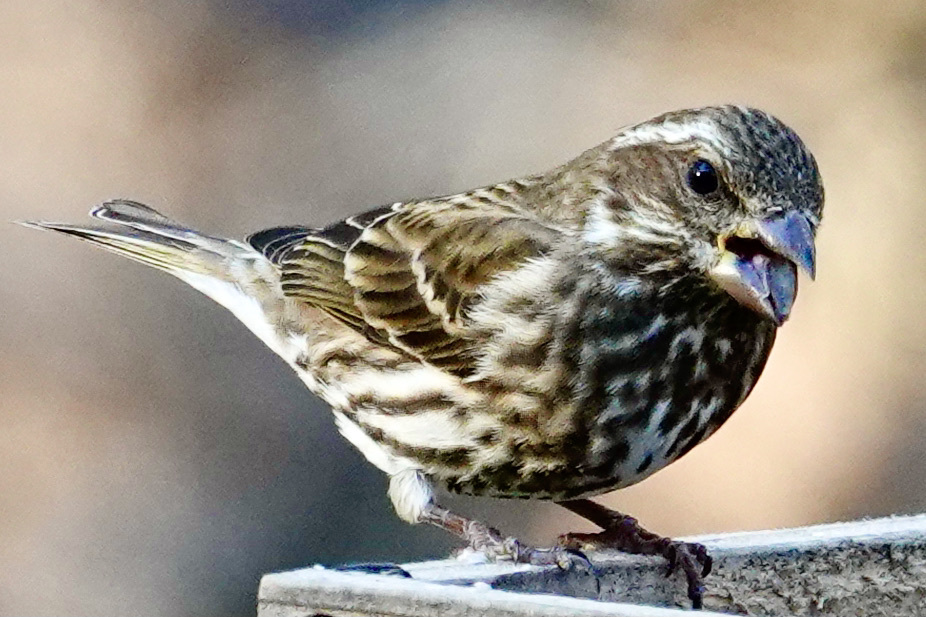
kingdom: Animalia
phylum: Chordata
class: Aves
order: Passeriformes
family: Fringillidae
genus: Haemorhous
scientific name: Haemorhous purpureus
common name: Purple finch
